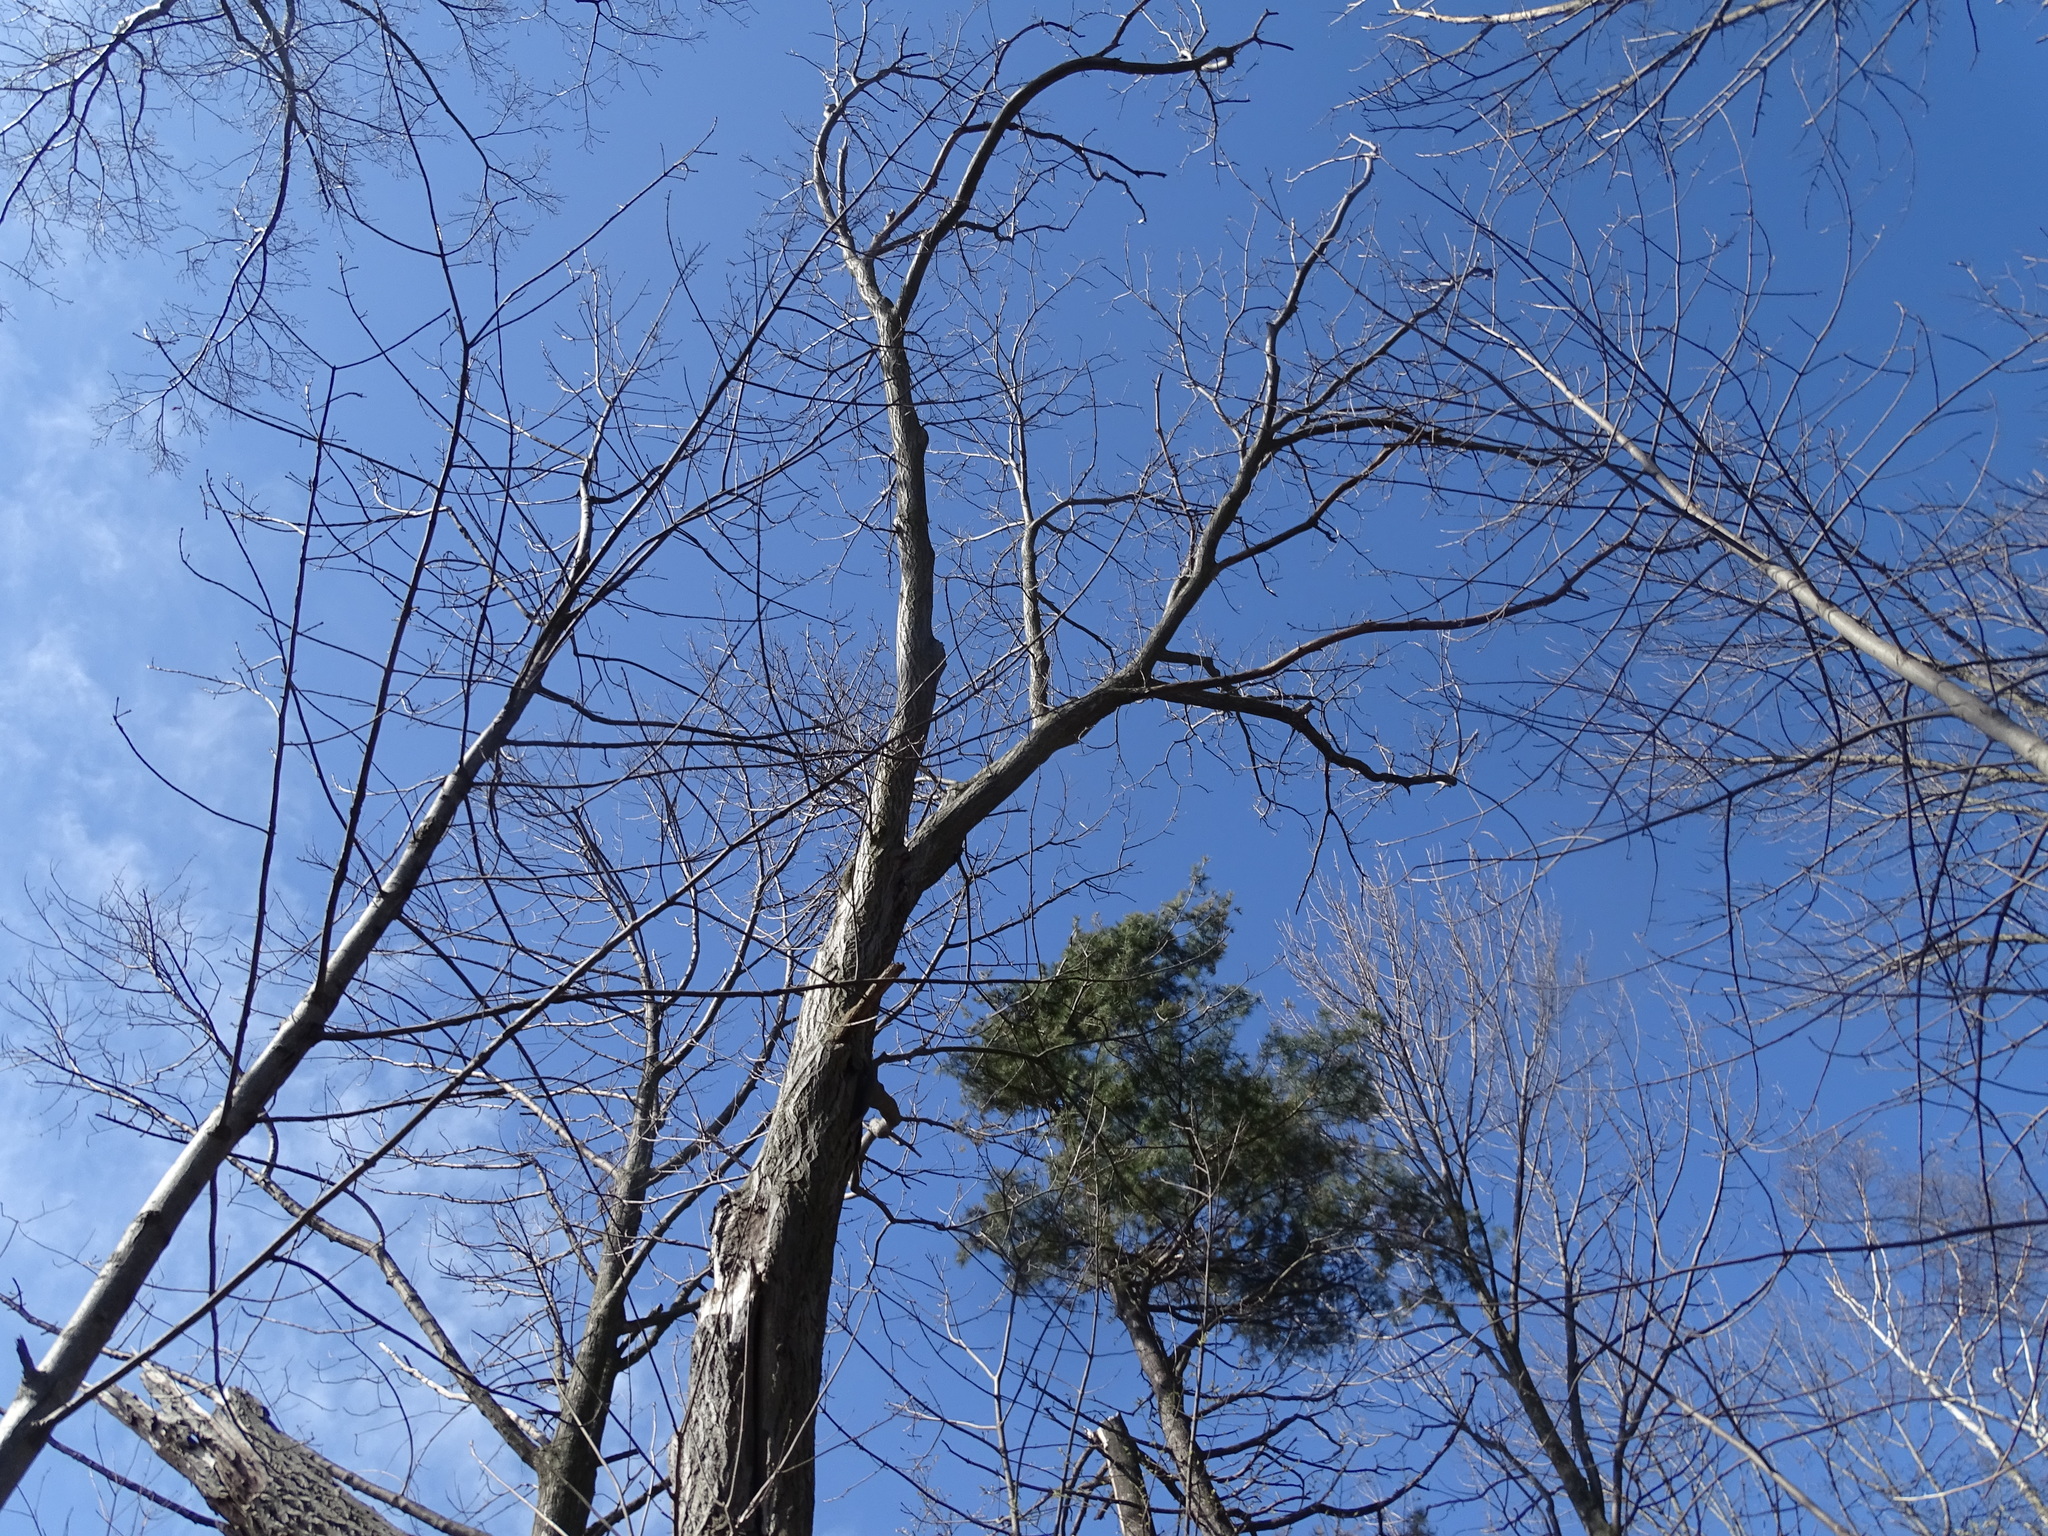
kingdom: Plantae
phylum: Tracheophyta
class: Magnoliopsida
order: Fagales
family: Juglandaceae
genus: Juglans
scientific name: Juglans cinerea
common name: Butternut
